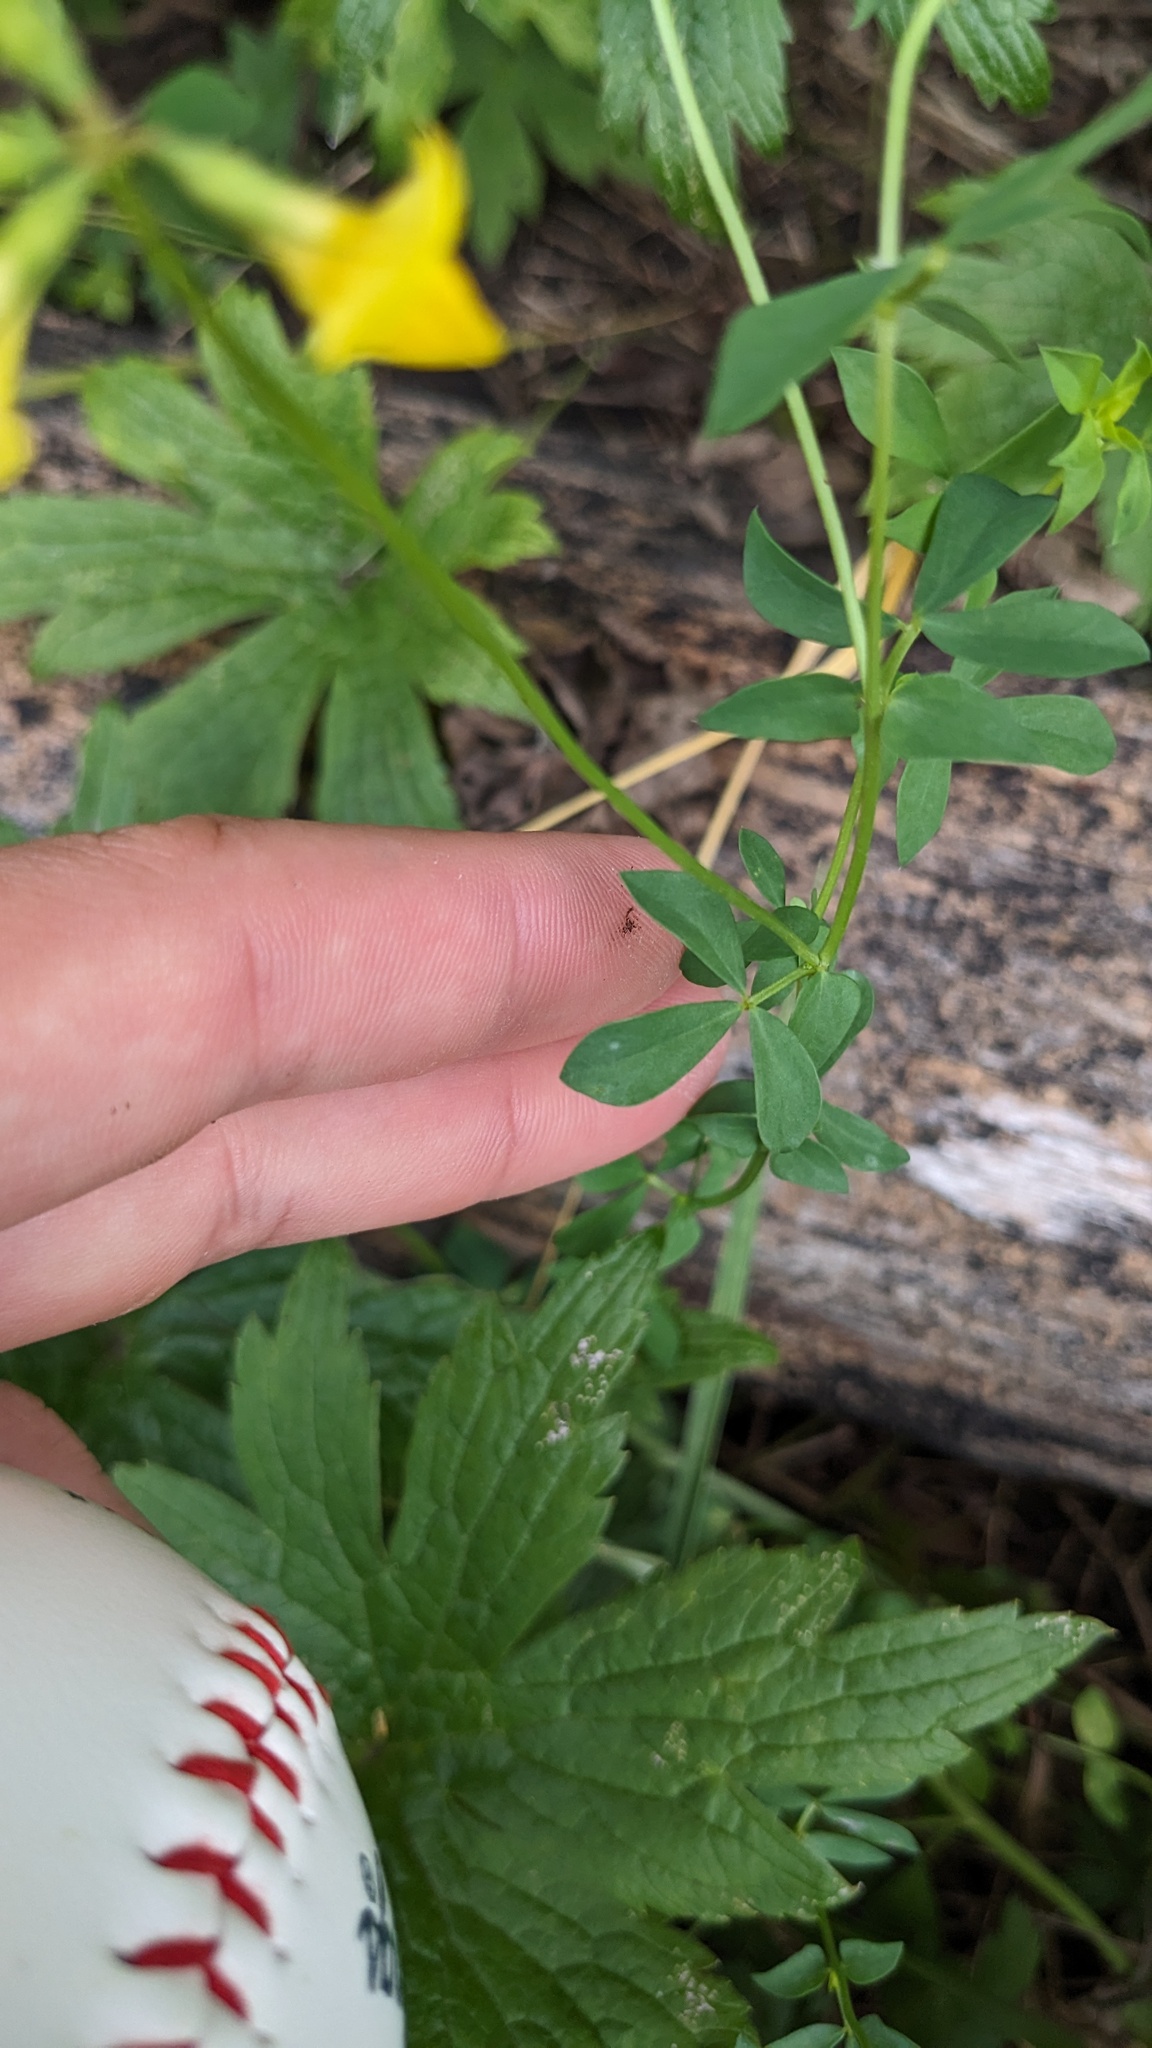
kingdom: Plantae
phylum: Tracheophyta
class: Magnoliopsida
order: Fabales
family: Fabaceae
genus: Lotus
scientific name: Lotus corniculatus
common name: Common bird's-foot-trefoil
